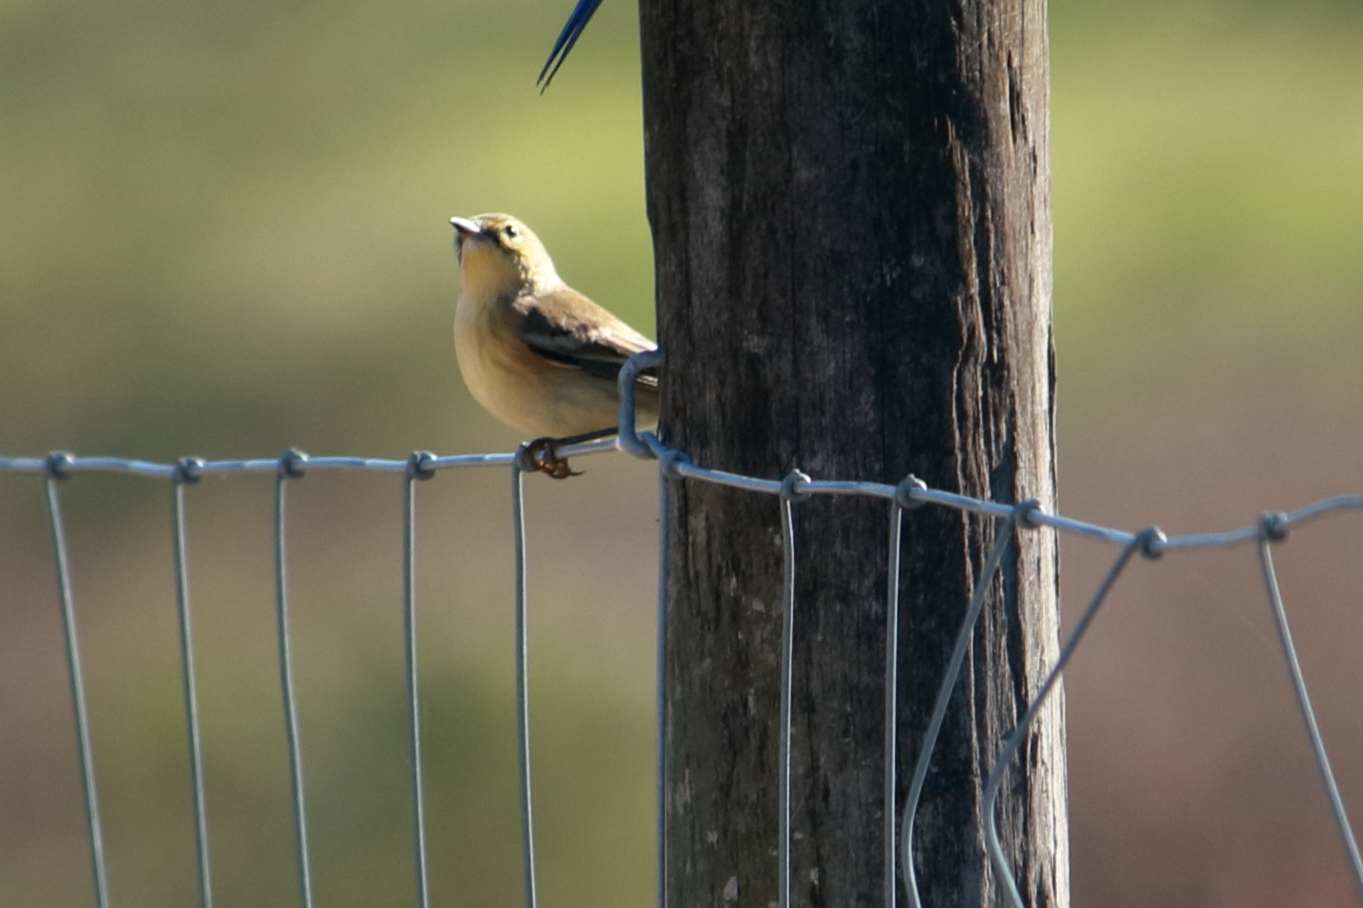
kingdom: Animalia
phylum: Chordata
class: Aves
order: Passeriformes
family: Parulidae
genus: Setophaga
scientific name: Setophaga pinus
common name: Pine warbler
